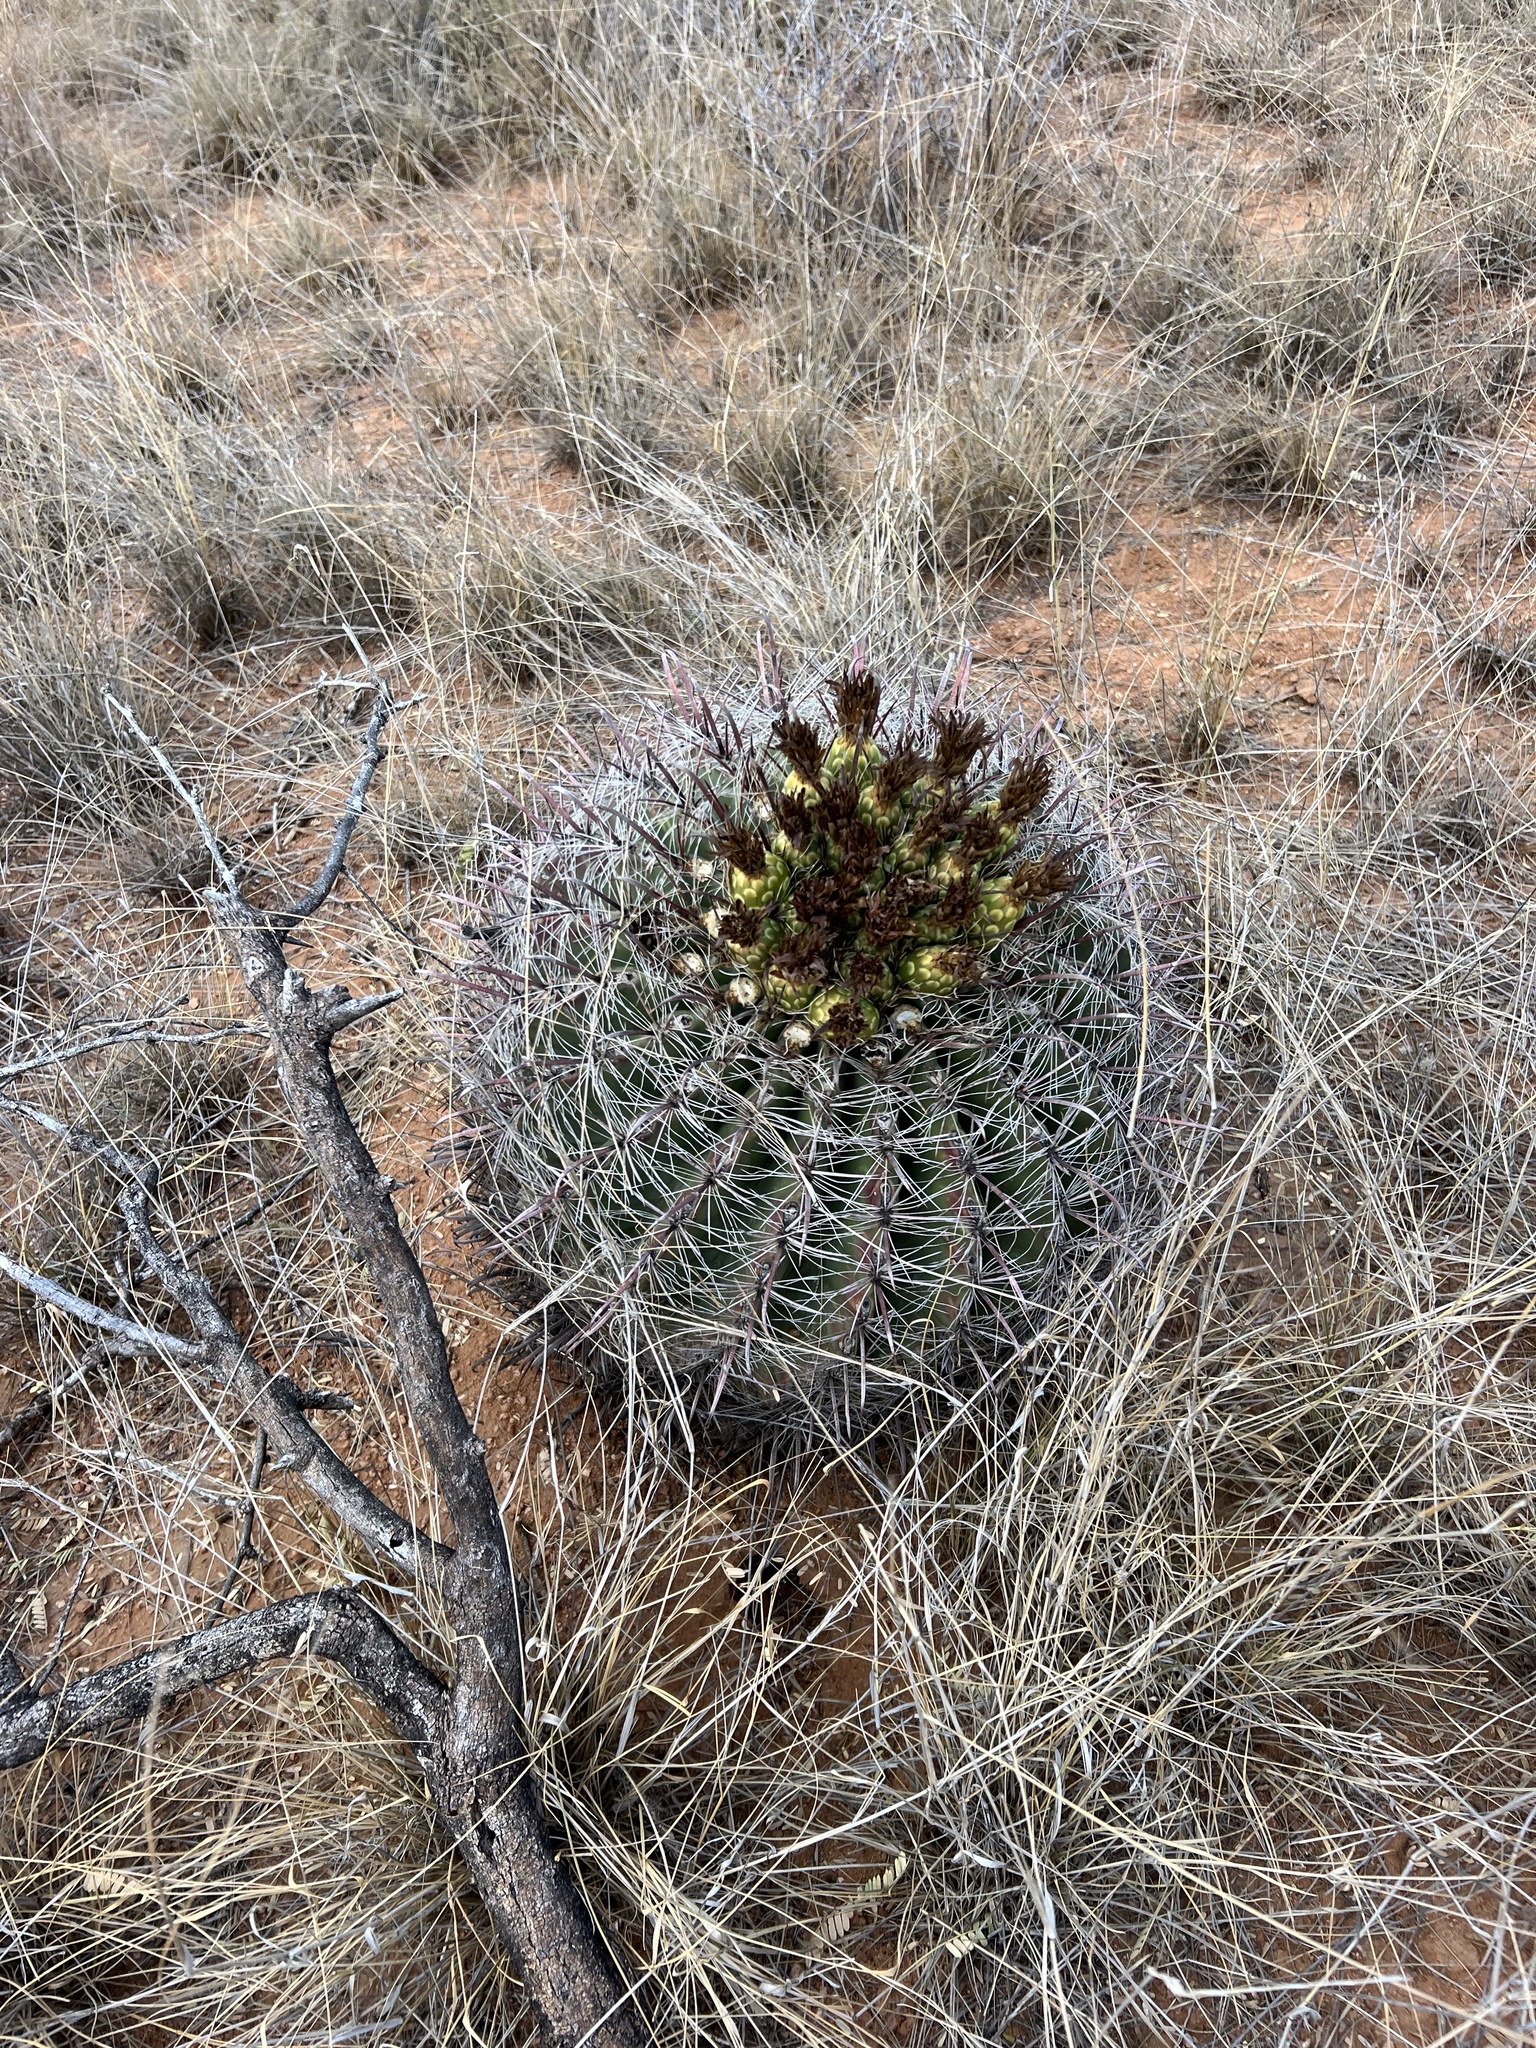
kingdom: Plantae
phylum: Tracheophyta
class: Magnoliopsida
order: Caryophyllales
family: Cactaceae
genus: Ferocactus
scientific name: Ferocactus wislizeni
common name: Candy barrel cactus
